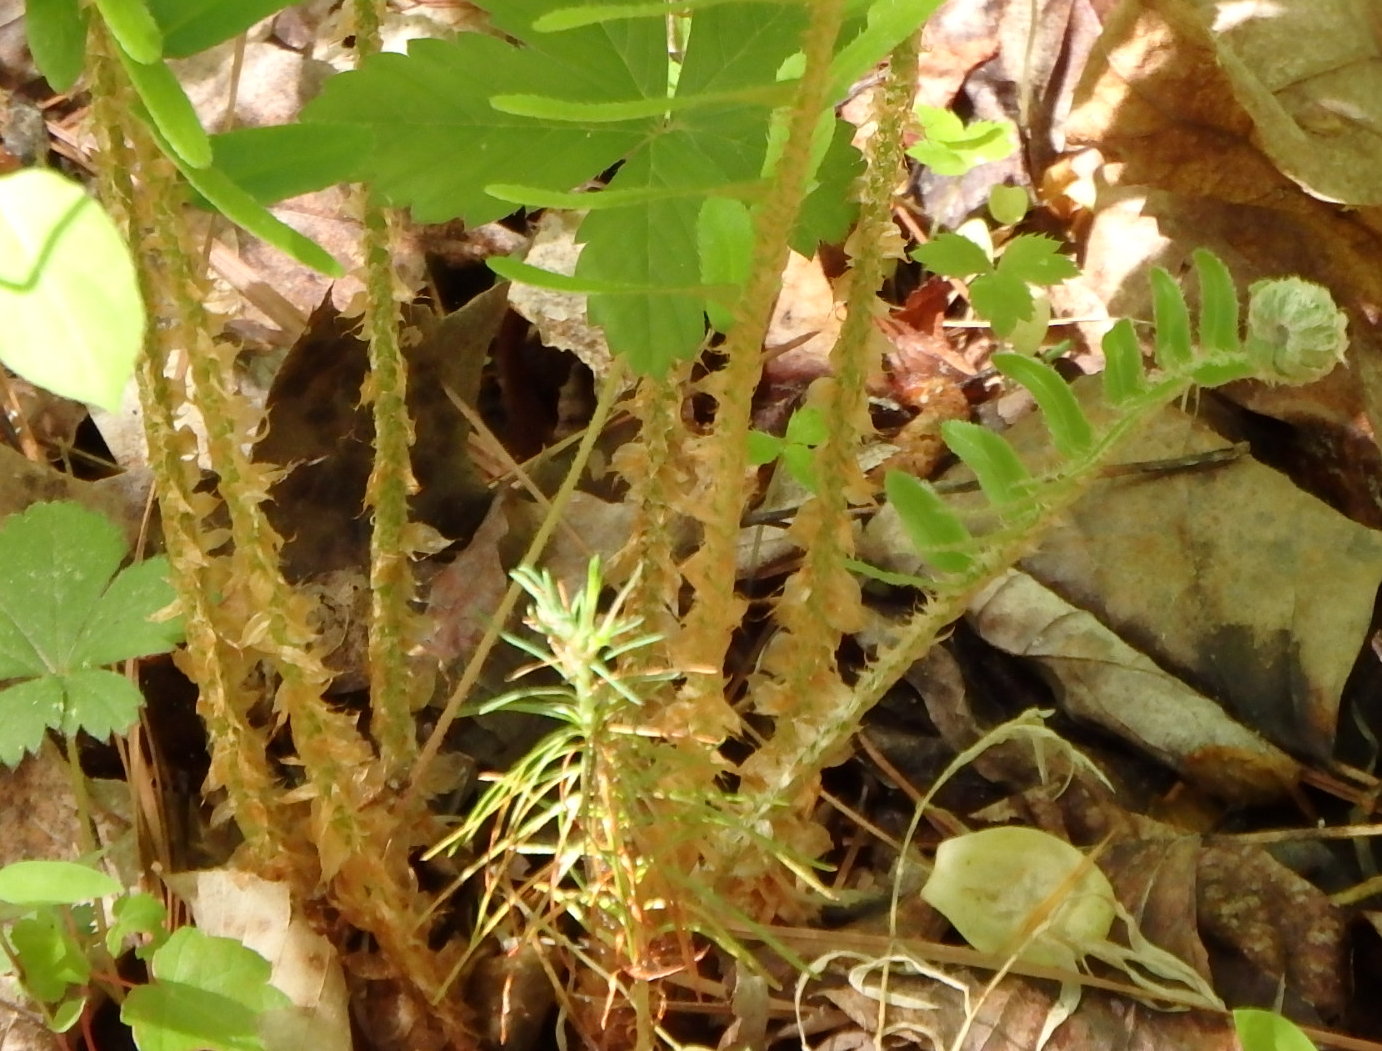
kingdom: Plantae
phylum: Tracheophyta
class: Polypodiopsida
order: Polypodiales
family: Dryopteridaceae
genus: Polystichum
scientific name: Polystichum acrostichoides
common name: Christmas fern
